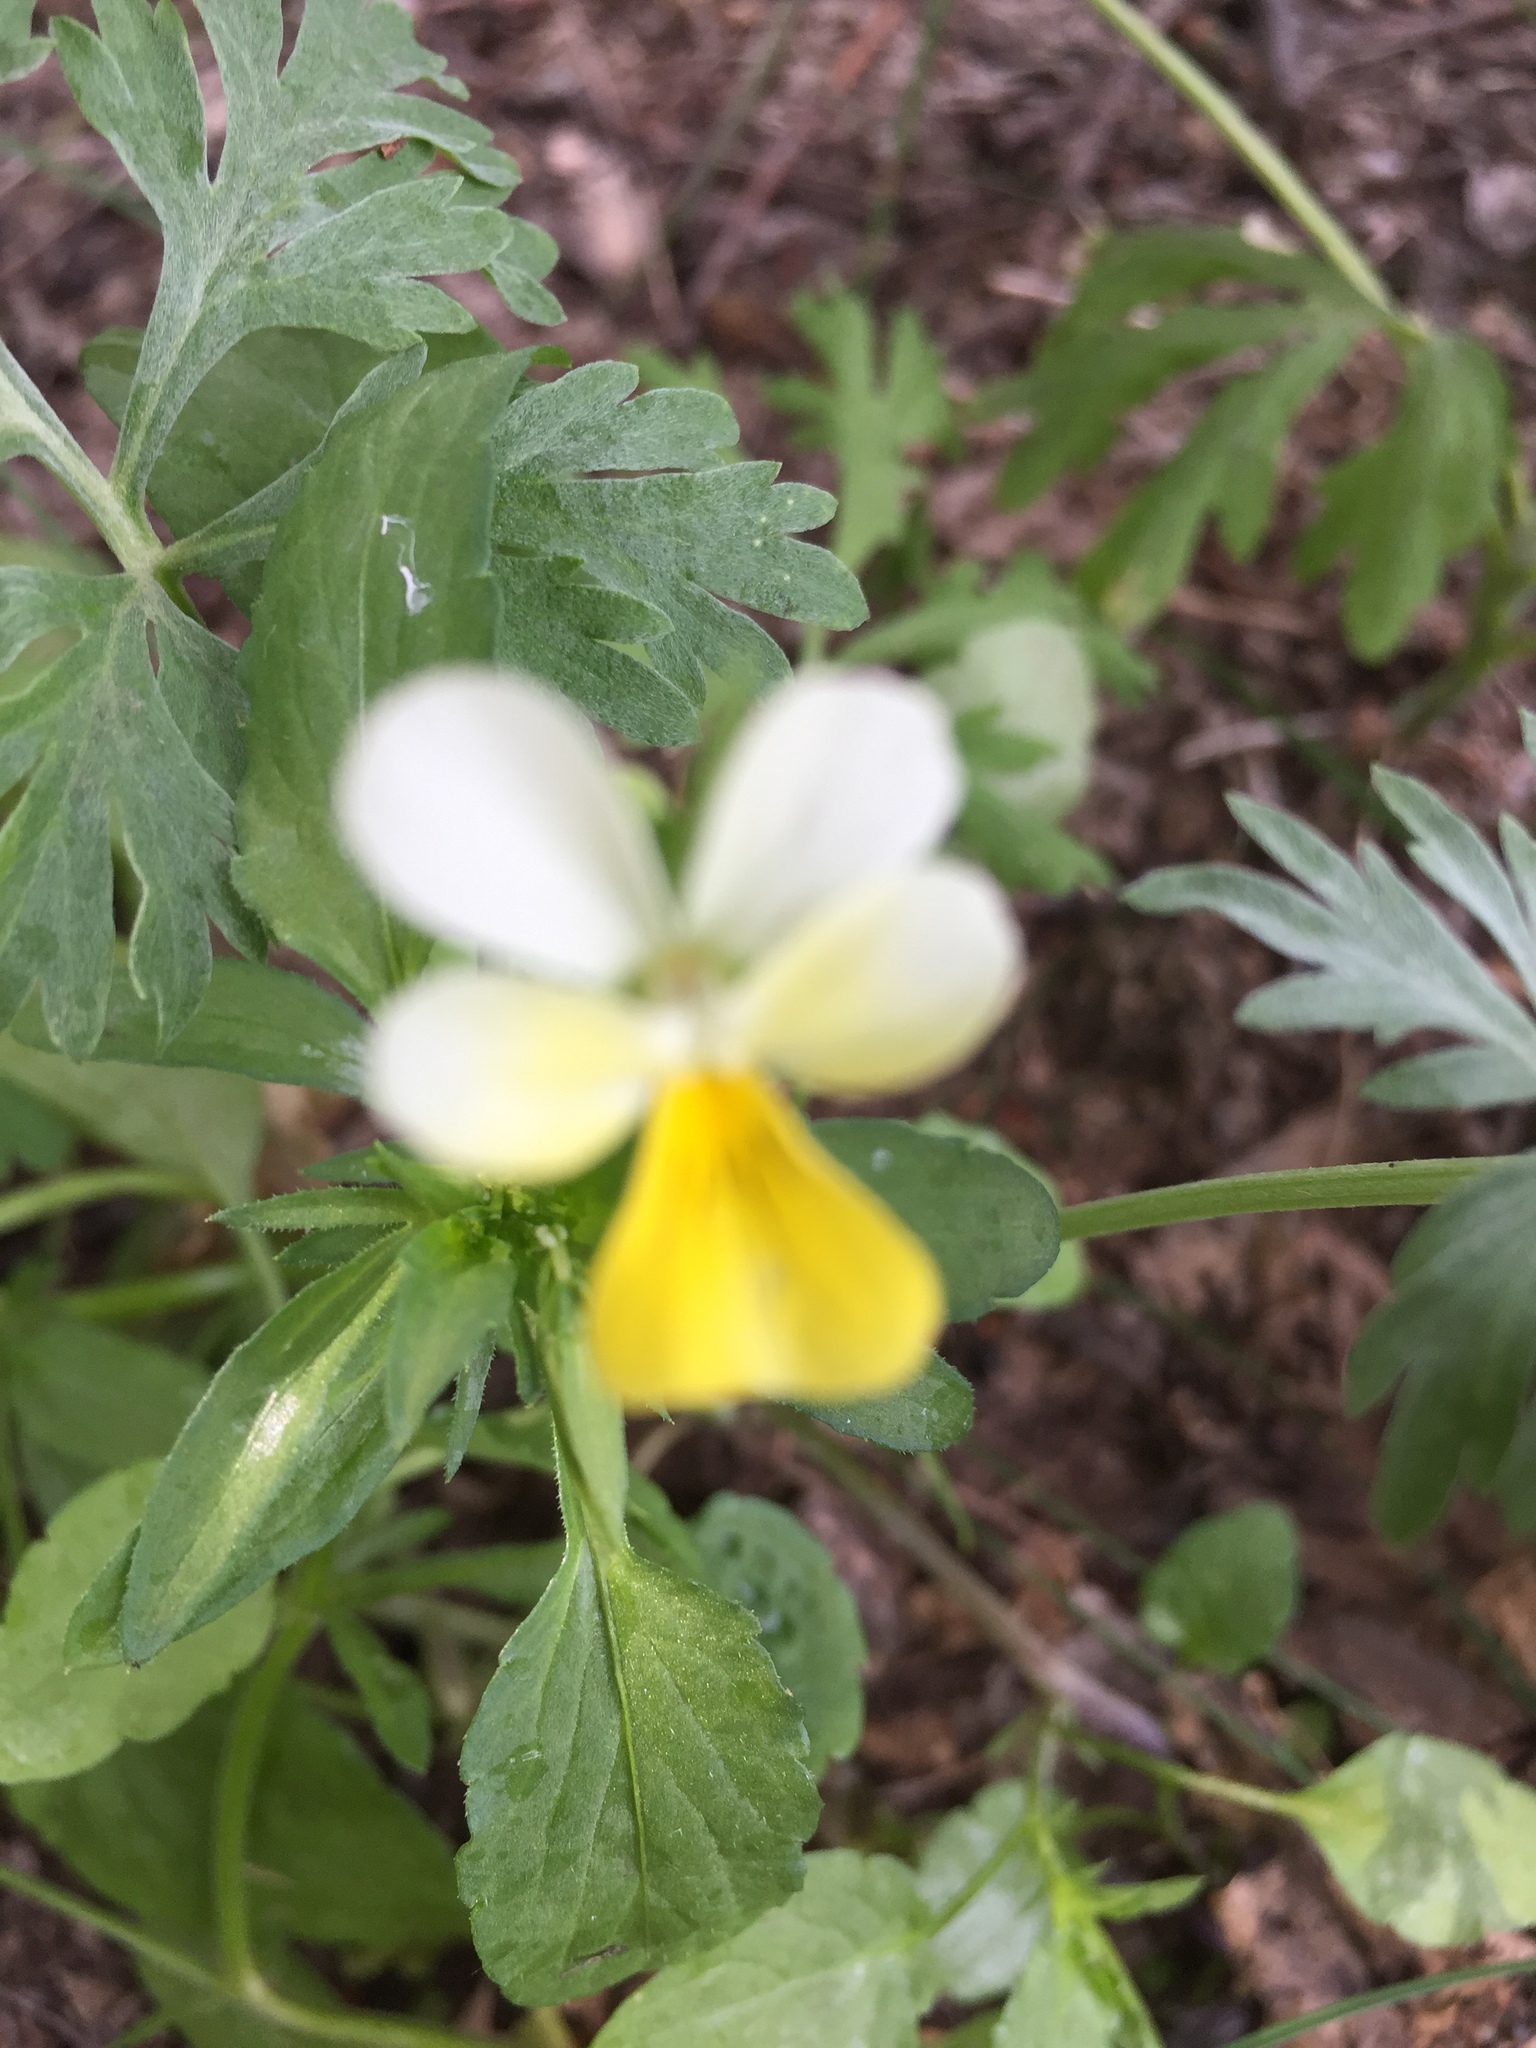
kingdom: Plantae
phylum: Tracheophyta
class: Magnoliopsida
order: Malpighiales
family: Violaceae
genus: Viola
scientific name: Viola arvensis
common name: Field pansy
